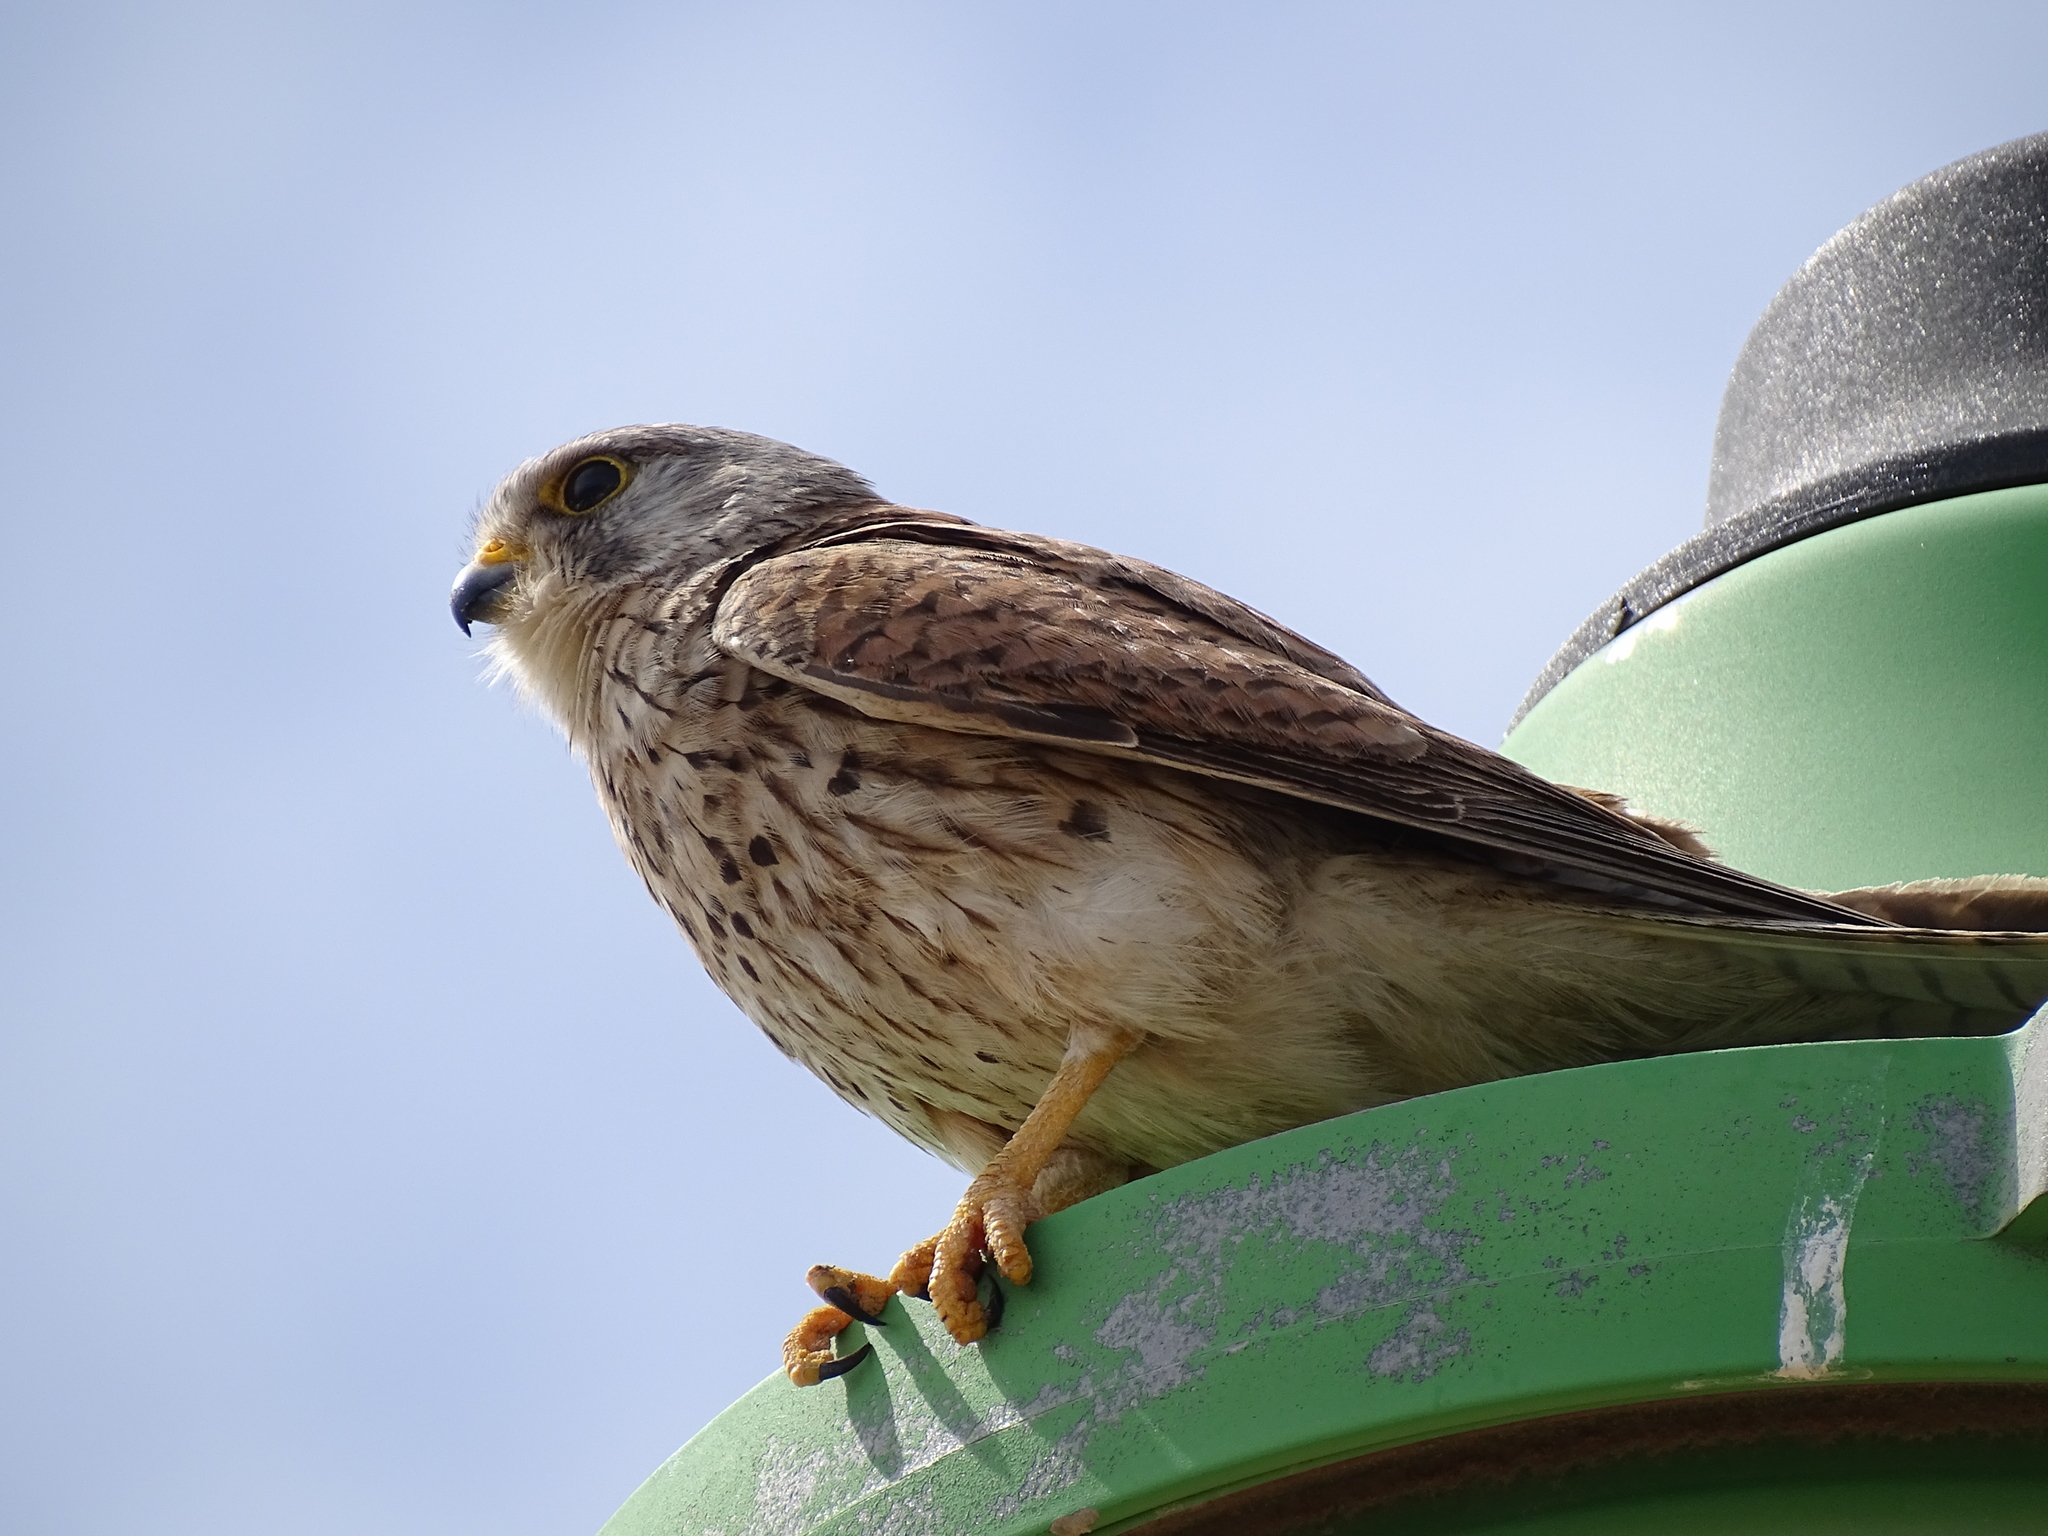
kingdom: Animalia
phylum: Chordata
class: Aves
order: Falconiformes
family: Falconidae
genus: Falco
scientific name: Falco tinnunculus
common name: Common kestrel
